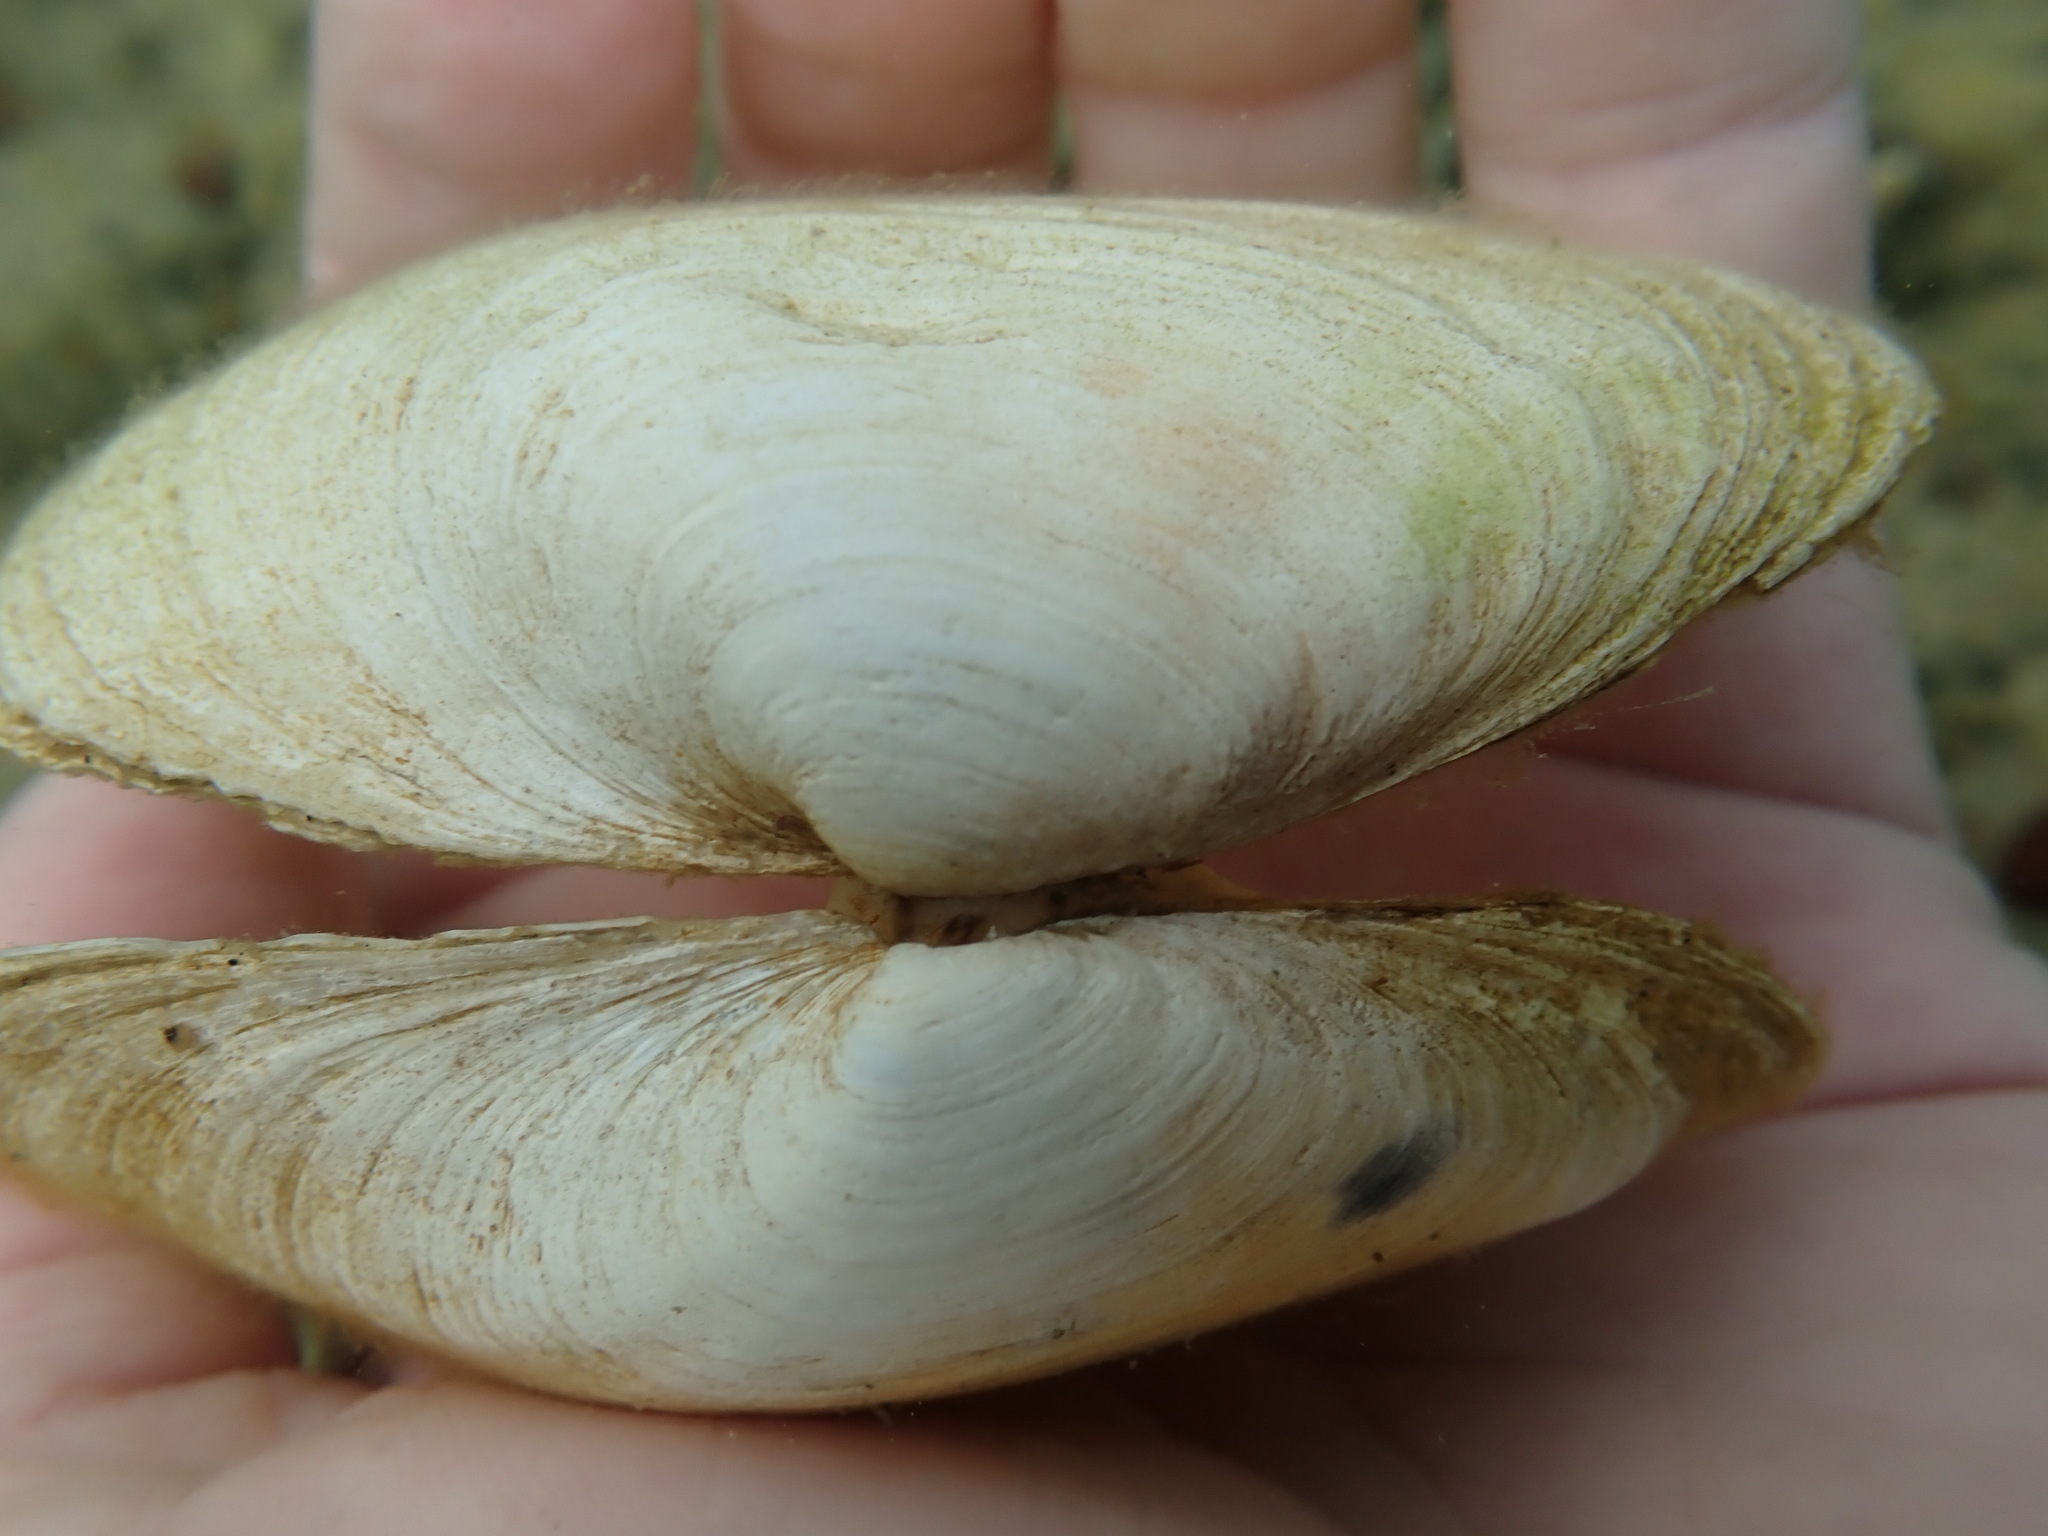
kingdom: Animalia
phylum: Mollusca
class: Bivalvia
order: Myida
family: Myidae
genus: Mya
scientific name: Mya arenaria
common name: Soft-shelled clam
